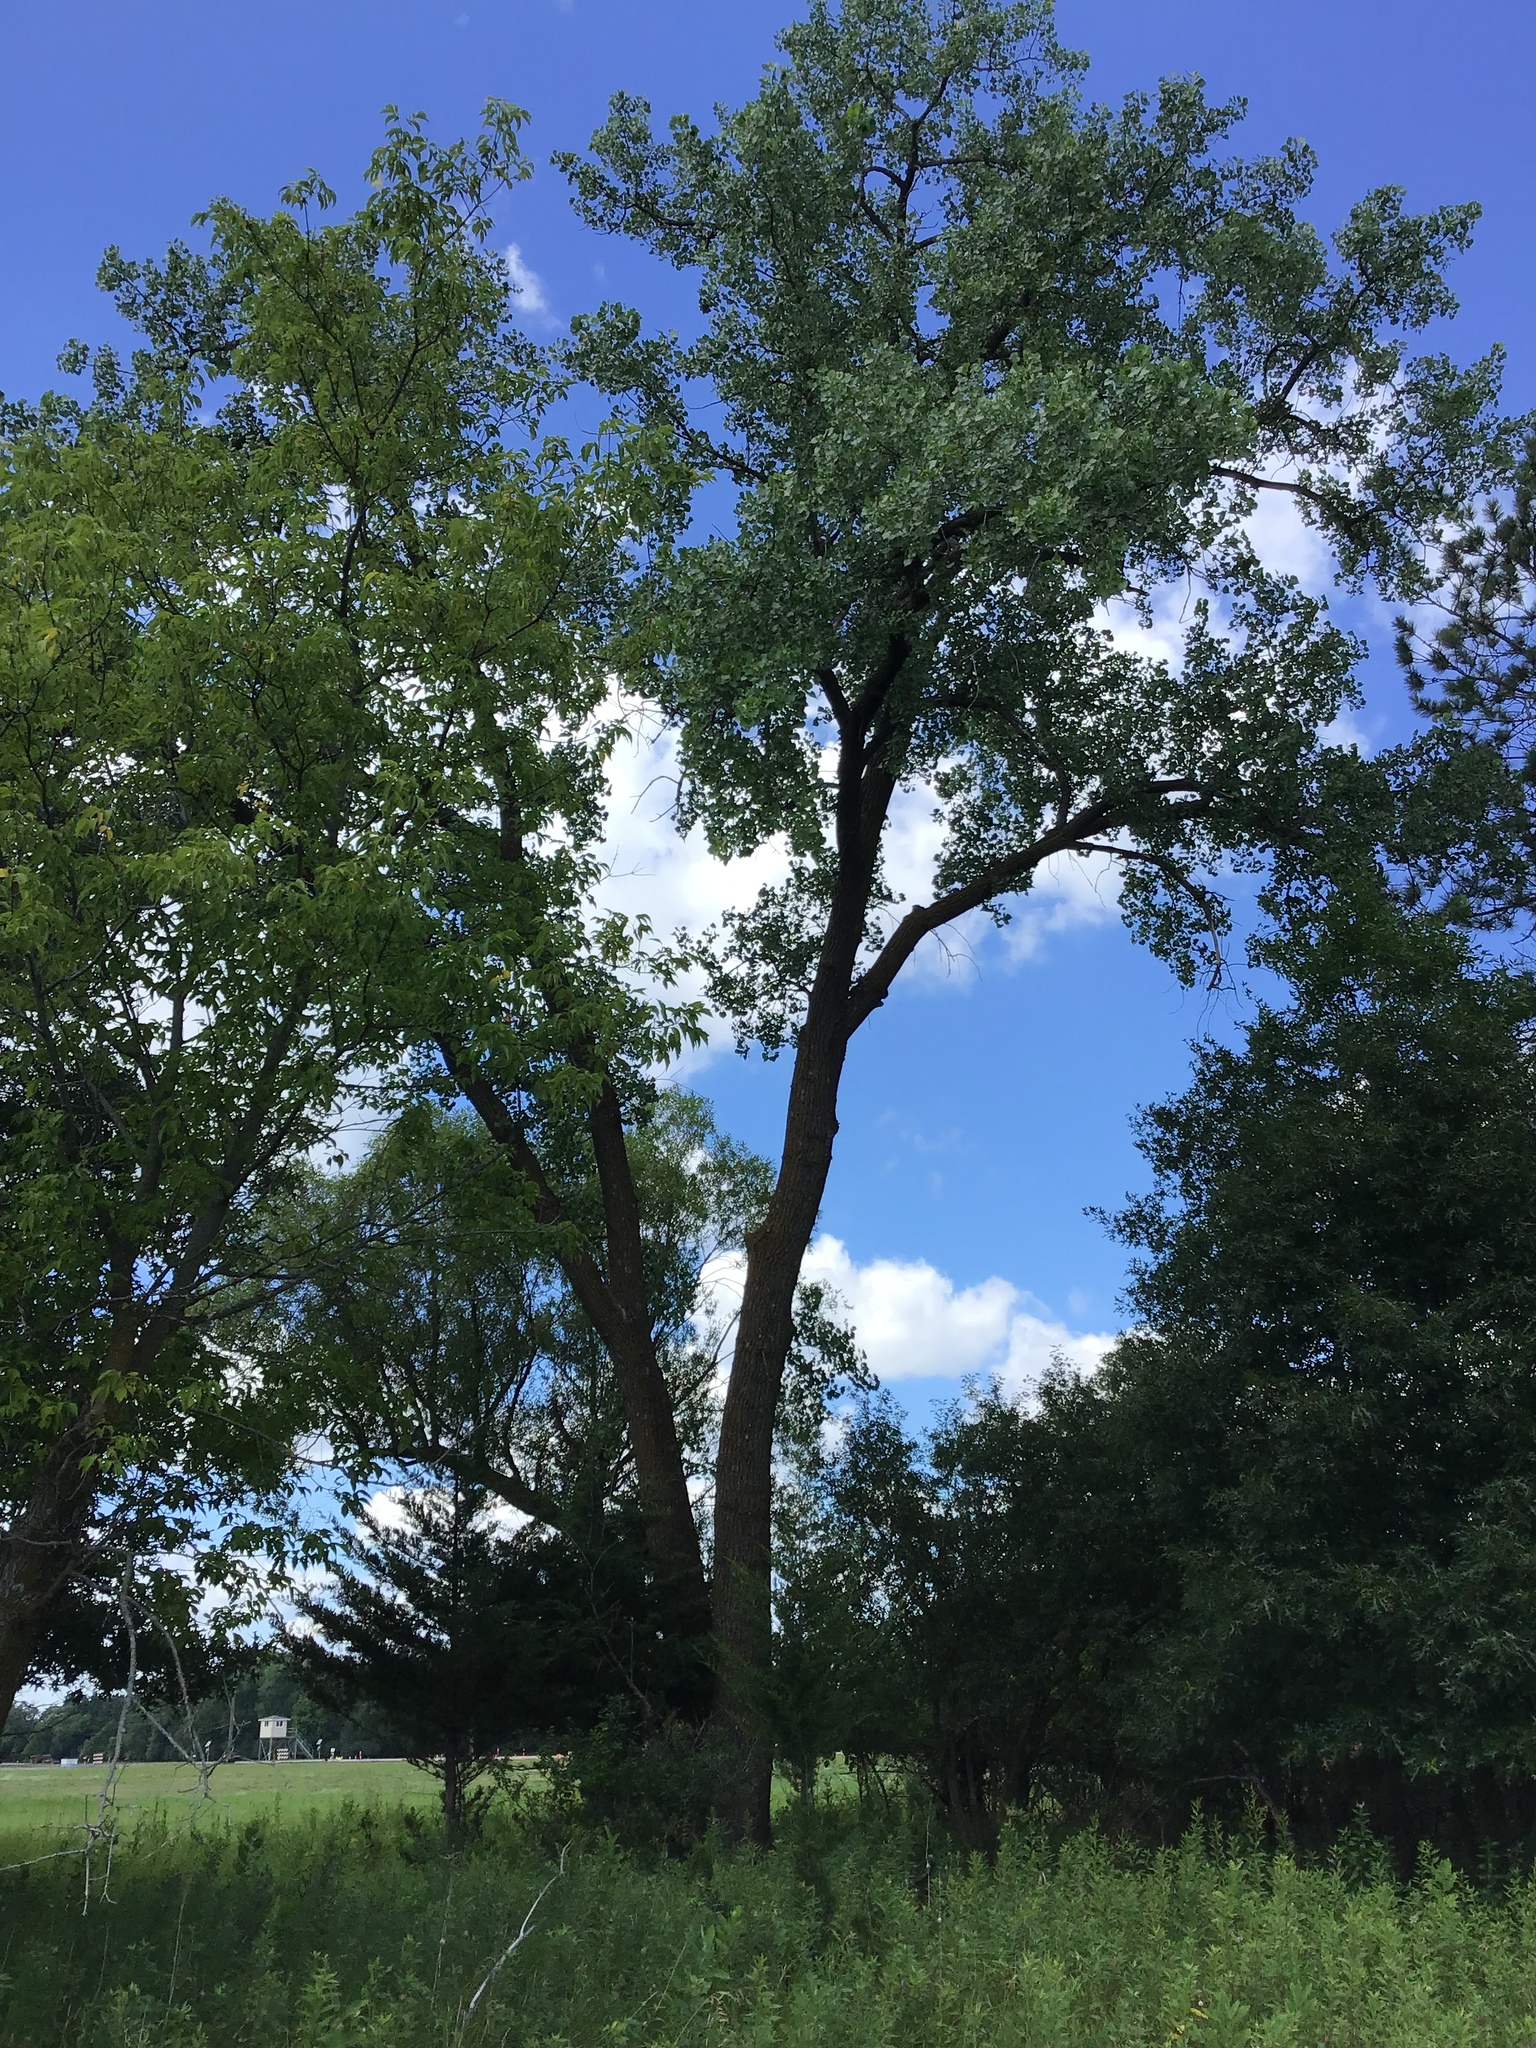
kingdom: Plantae
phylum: Tracheophyta
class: Magnoliopsida
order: Malpighiales
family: Salicaceae
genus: Populus
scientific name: Populus deltoides
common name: Eastern cottonwood
